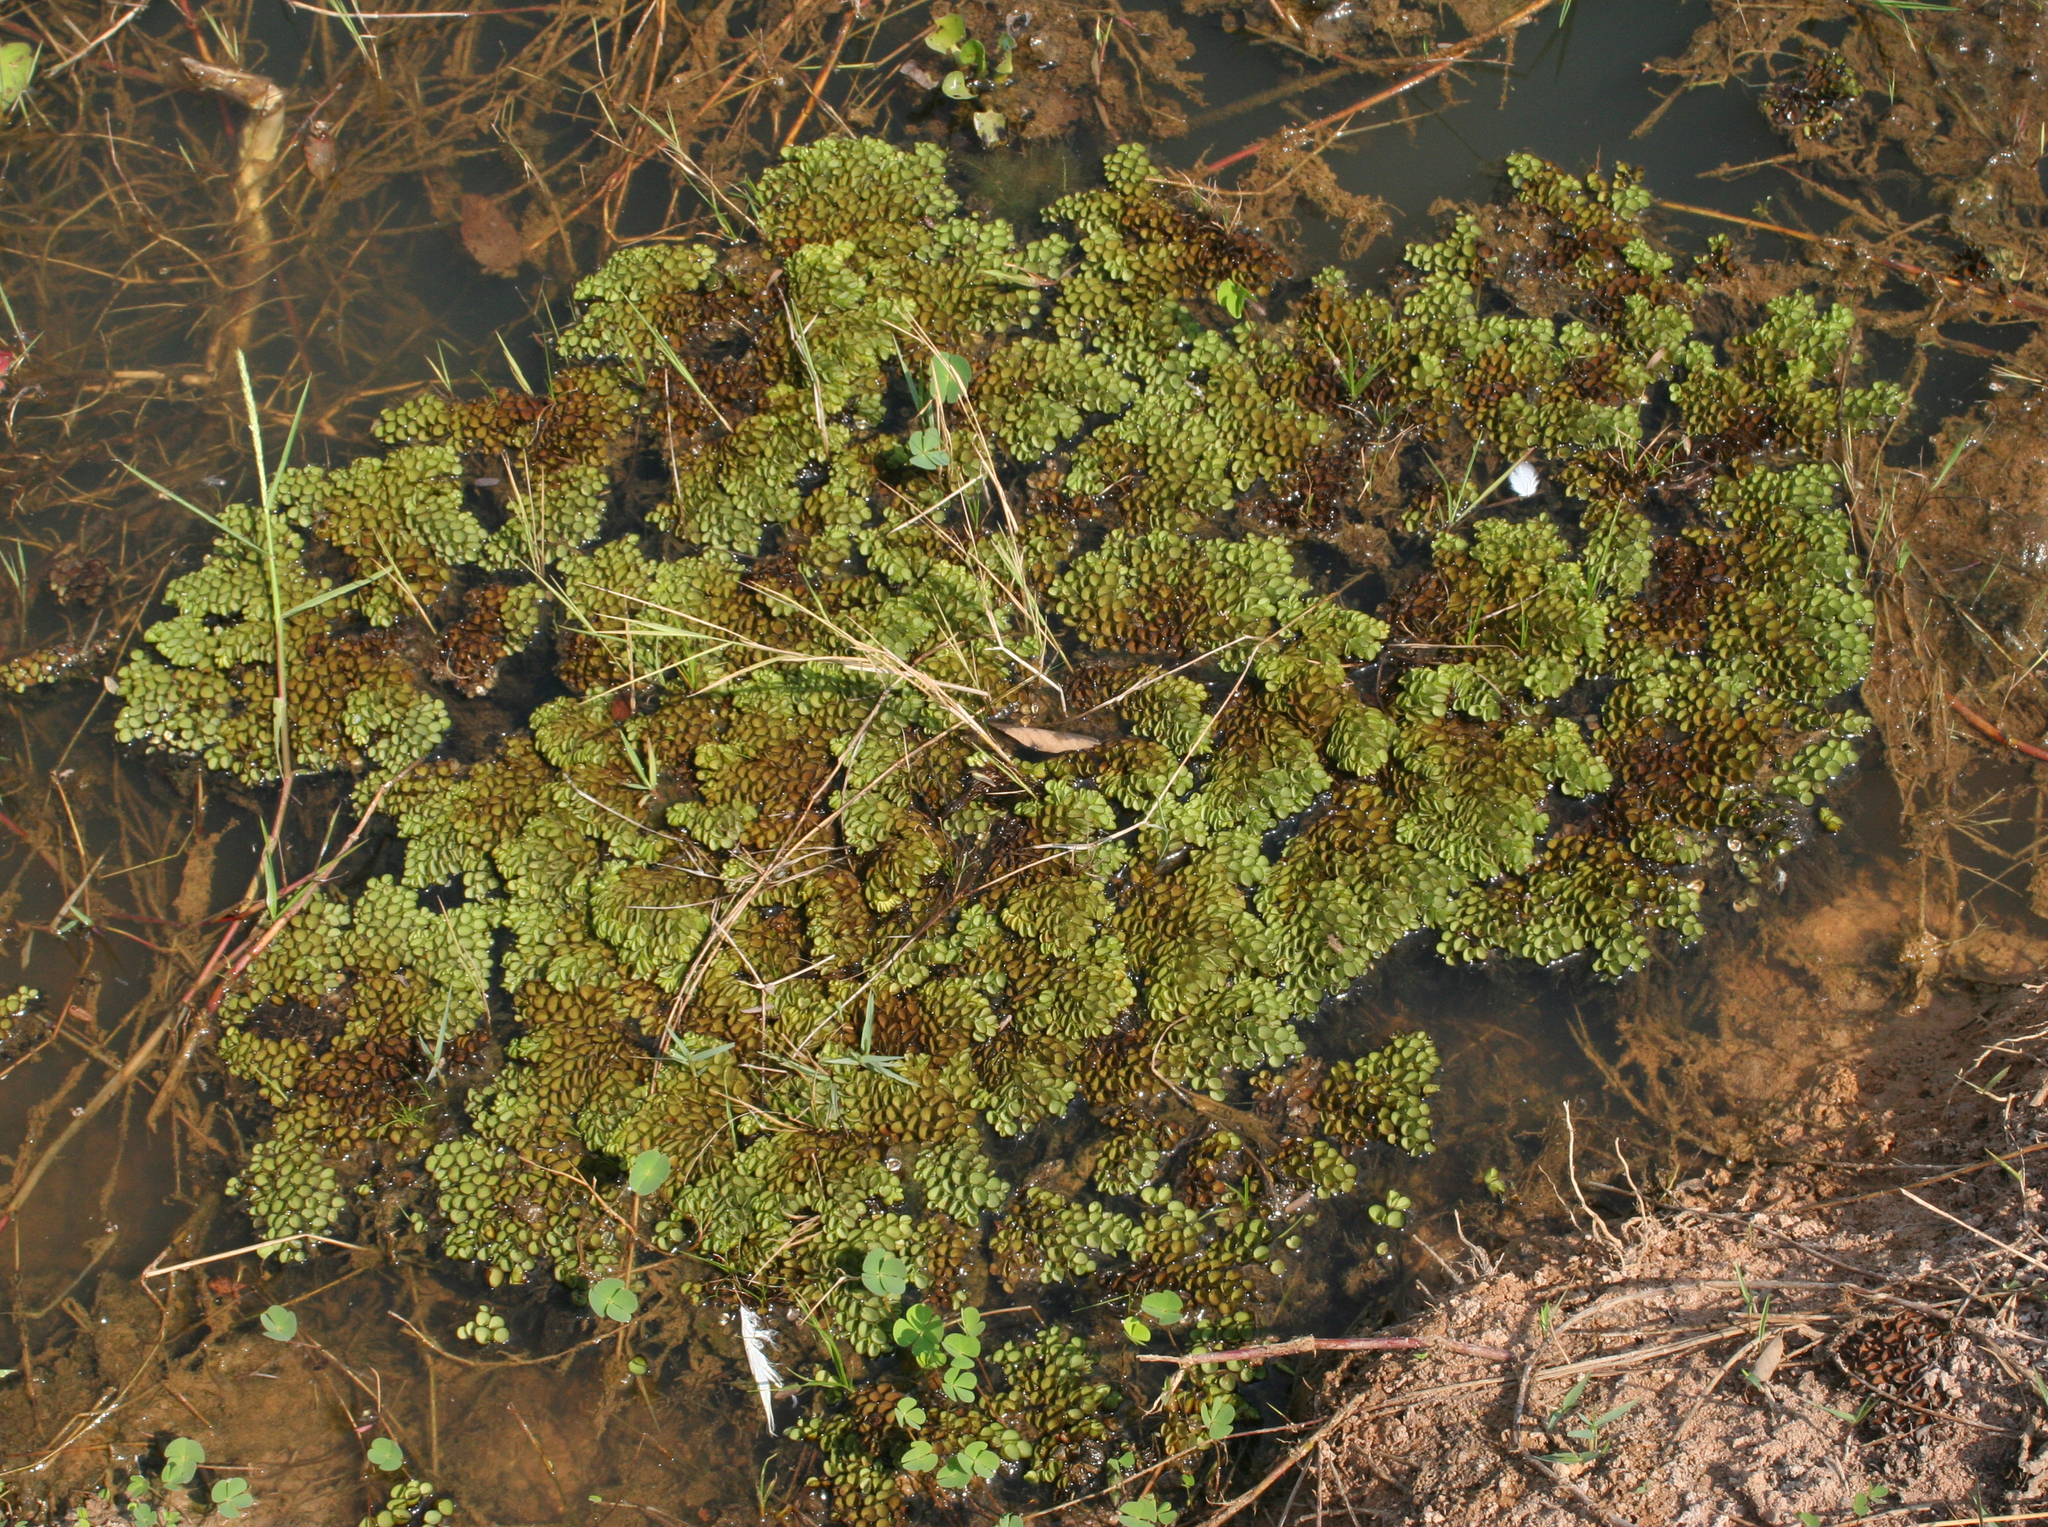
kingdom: Plantae
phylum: Tracheophyta
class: Polypodiopsida
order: Salviniales
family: Salviniaceae
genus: Salvinia
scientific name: Salvinia cucullata
